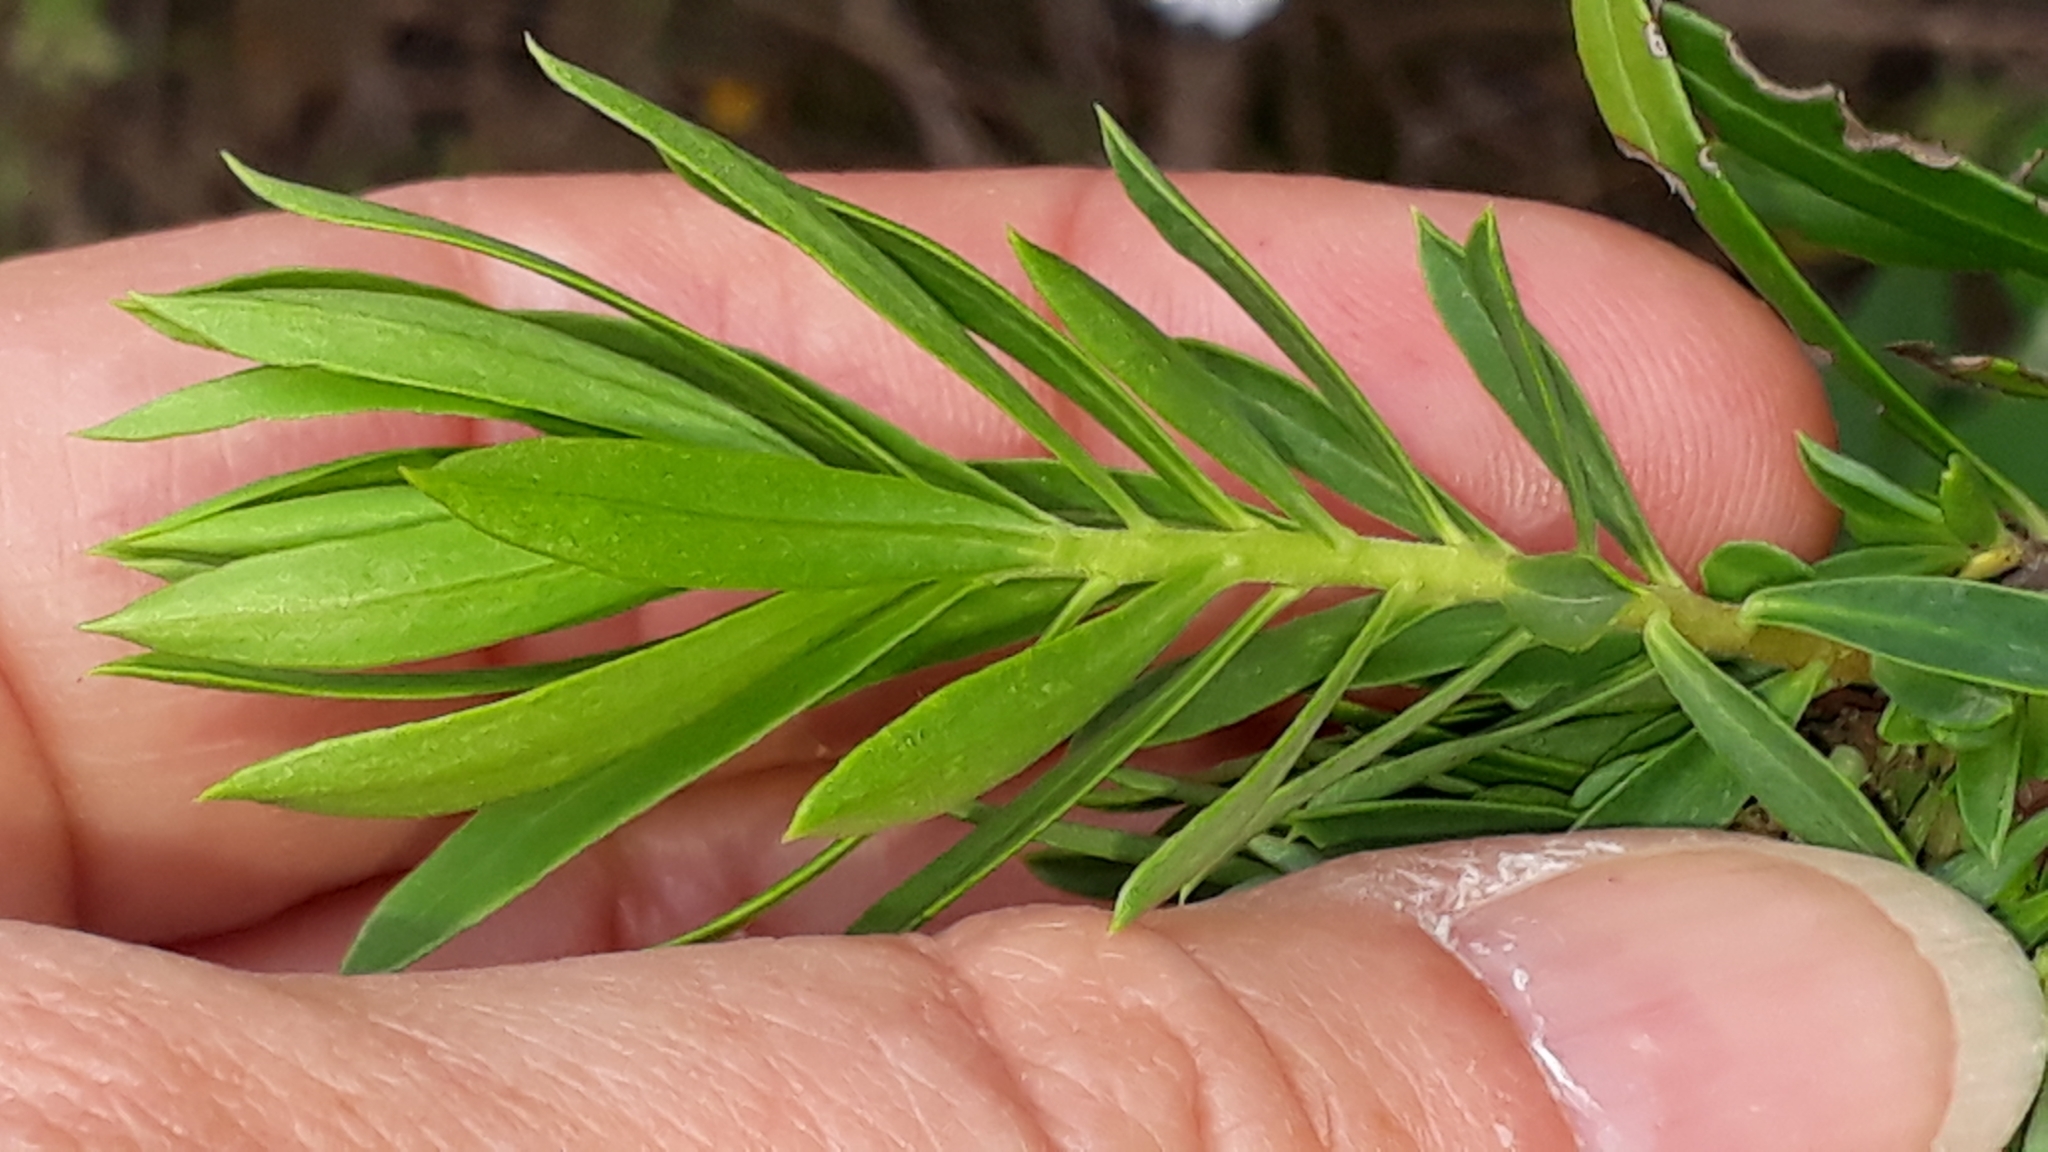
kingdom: Plantae
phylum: Tracheophyta
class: Magnoliopsida
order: Malvales
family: Thymelaeaceae
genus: Daphne
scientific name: Daphne gnidium
